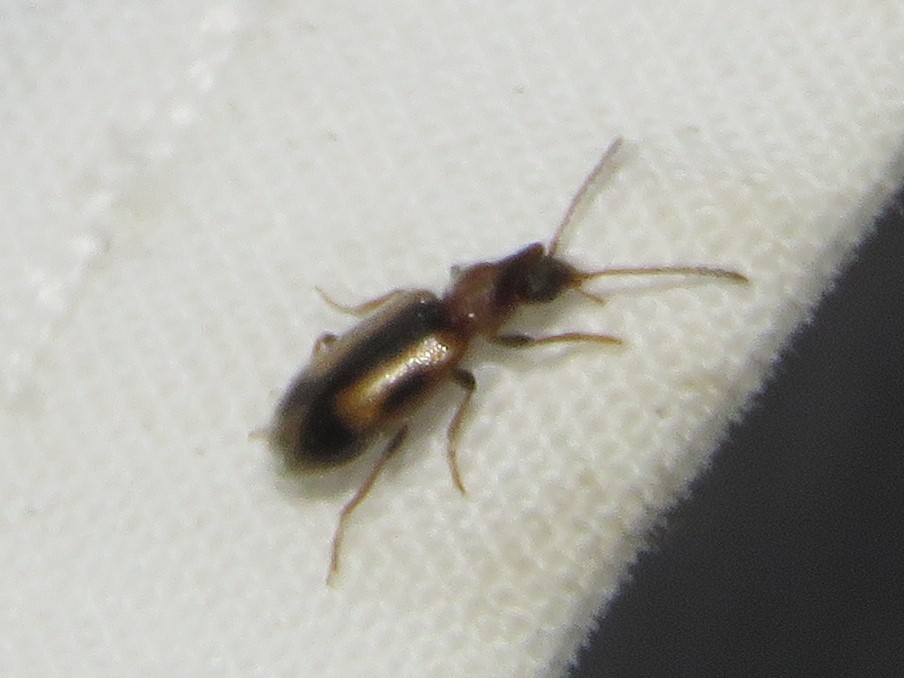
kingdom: Animalia
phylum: Arthropoda
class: Insecta
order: Coleoptera
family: Anthicidae
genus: Notoxus
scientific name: Notoxus anchora
